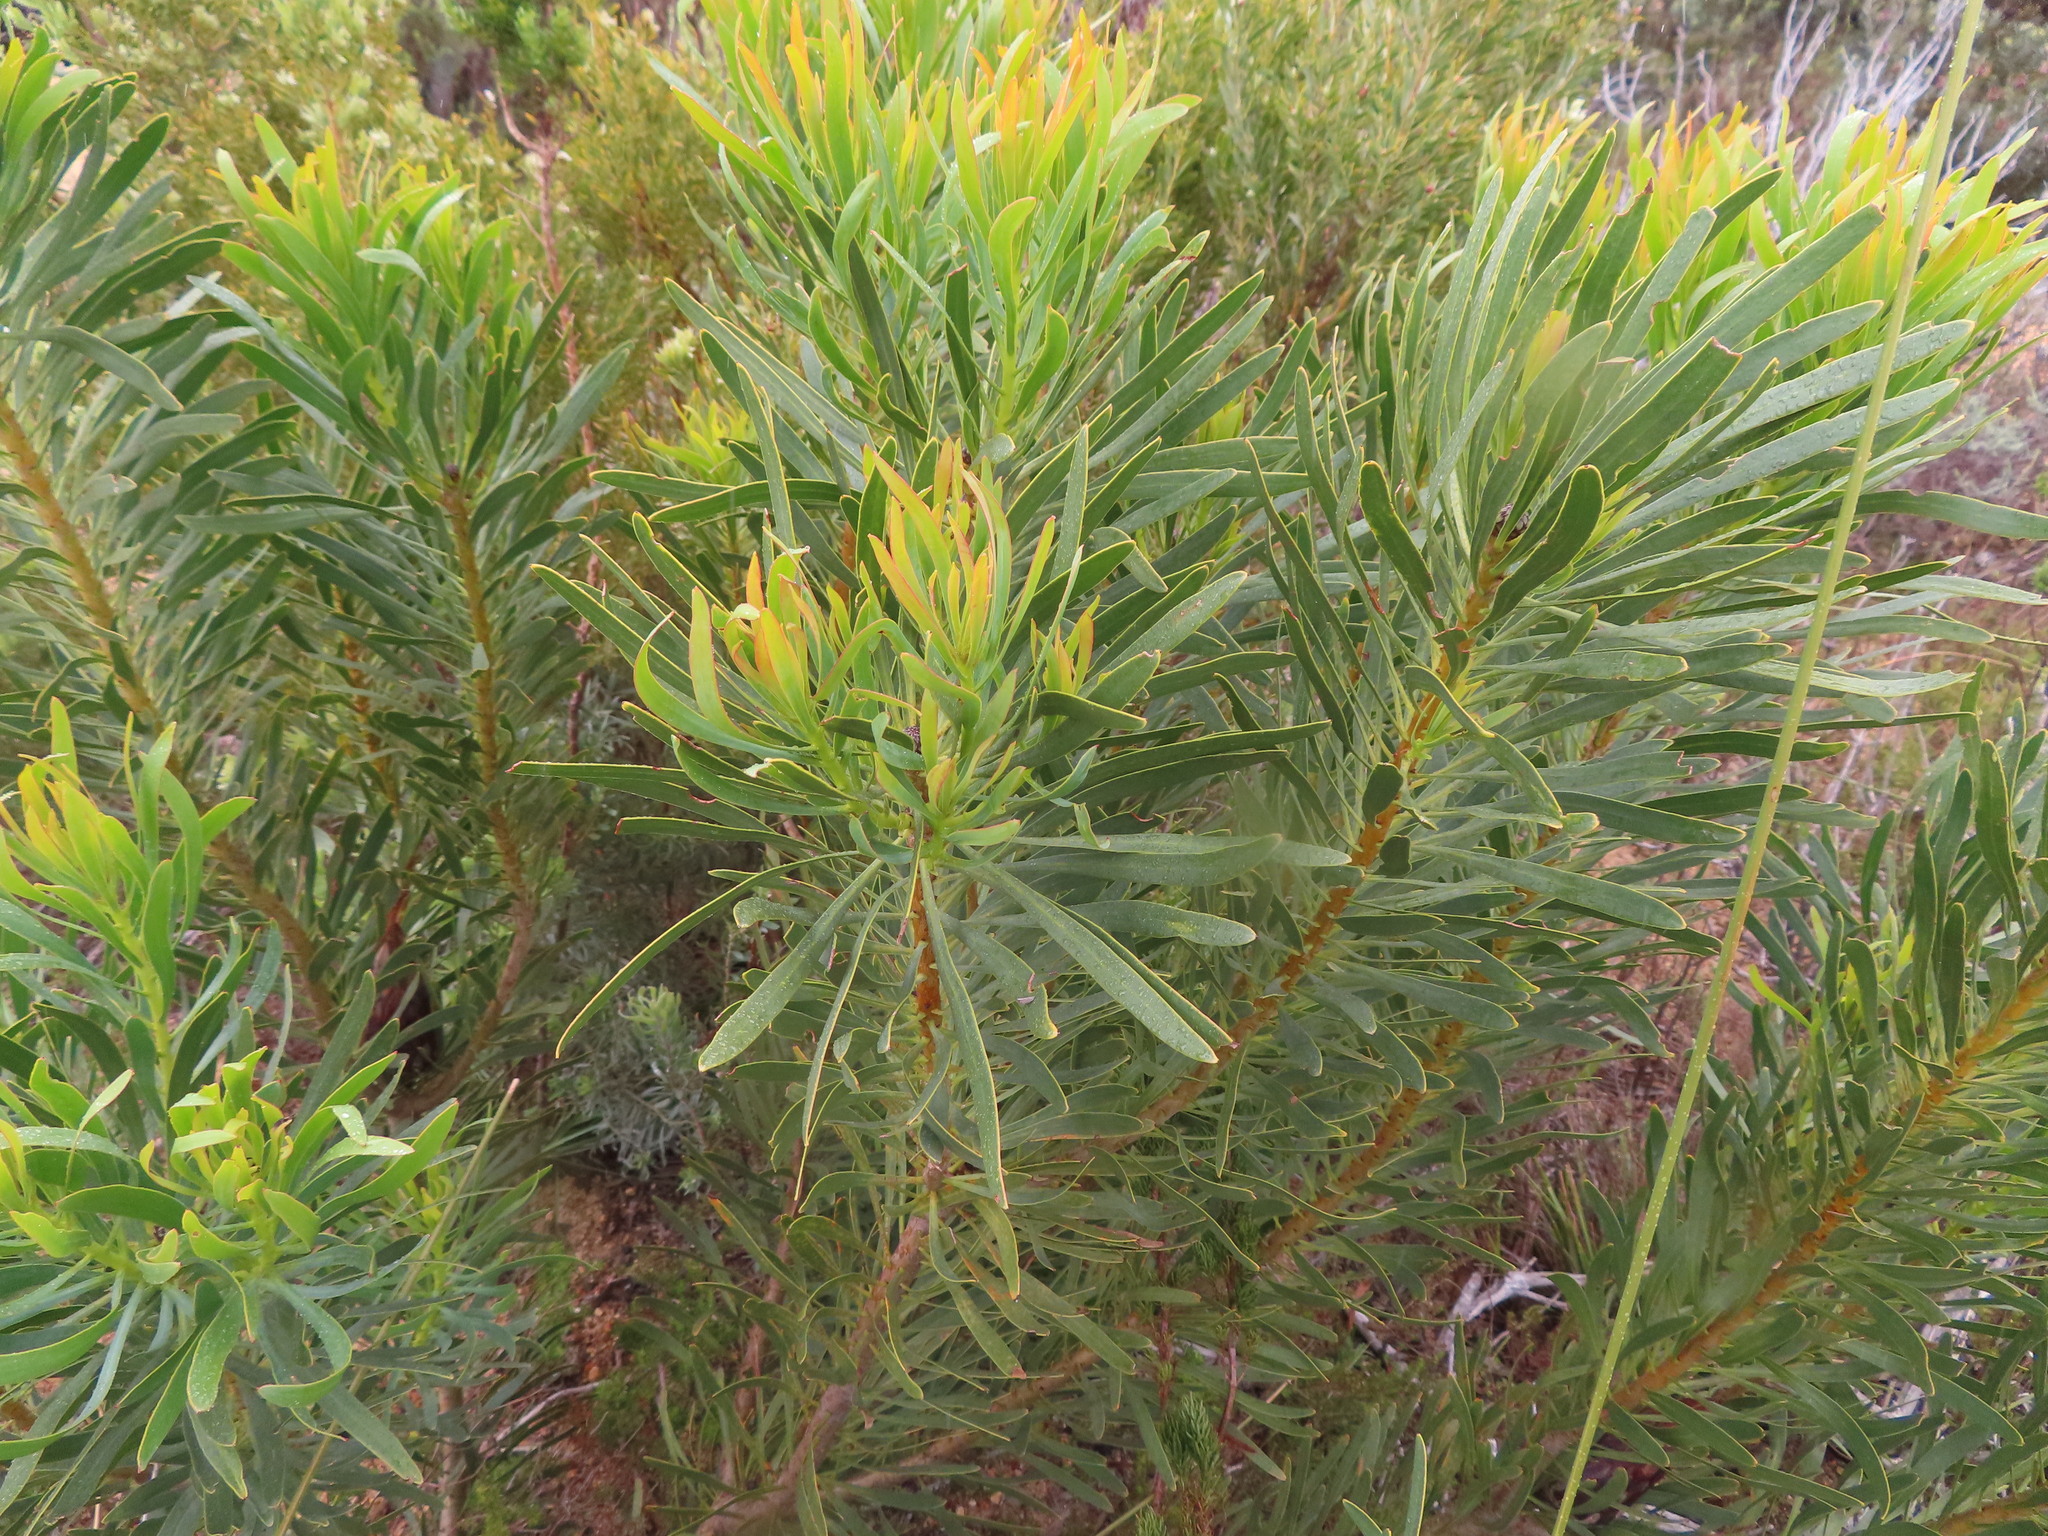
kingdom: Plantae
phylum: Tracheophyta
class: Magnoliopsida
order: Proteales
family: Proteaceae
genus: Protea
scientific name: Protea repens
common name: Sugarbush
